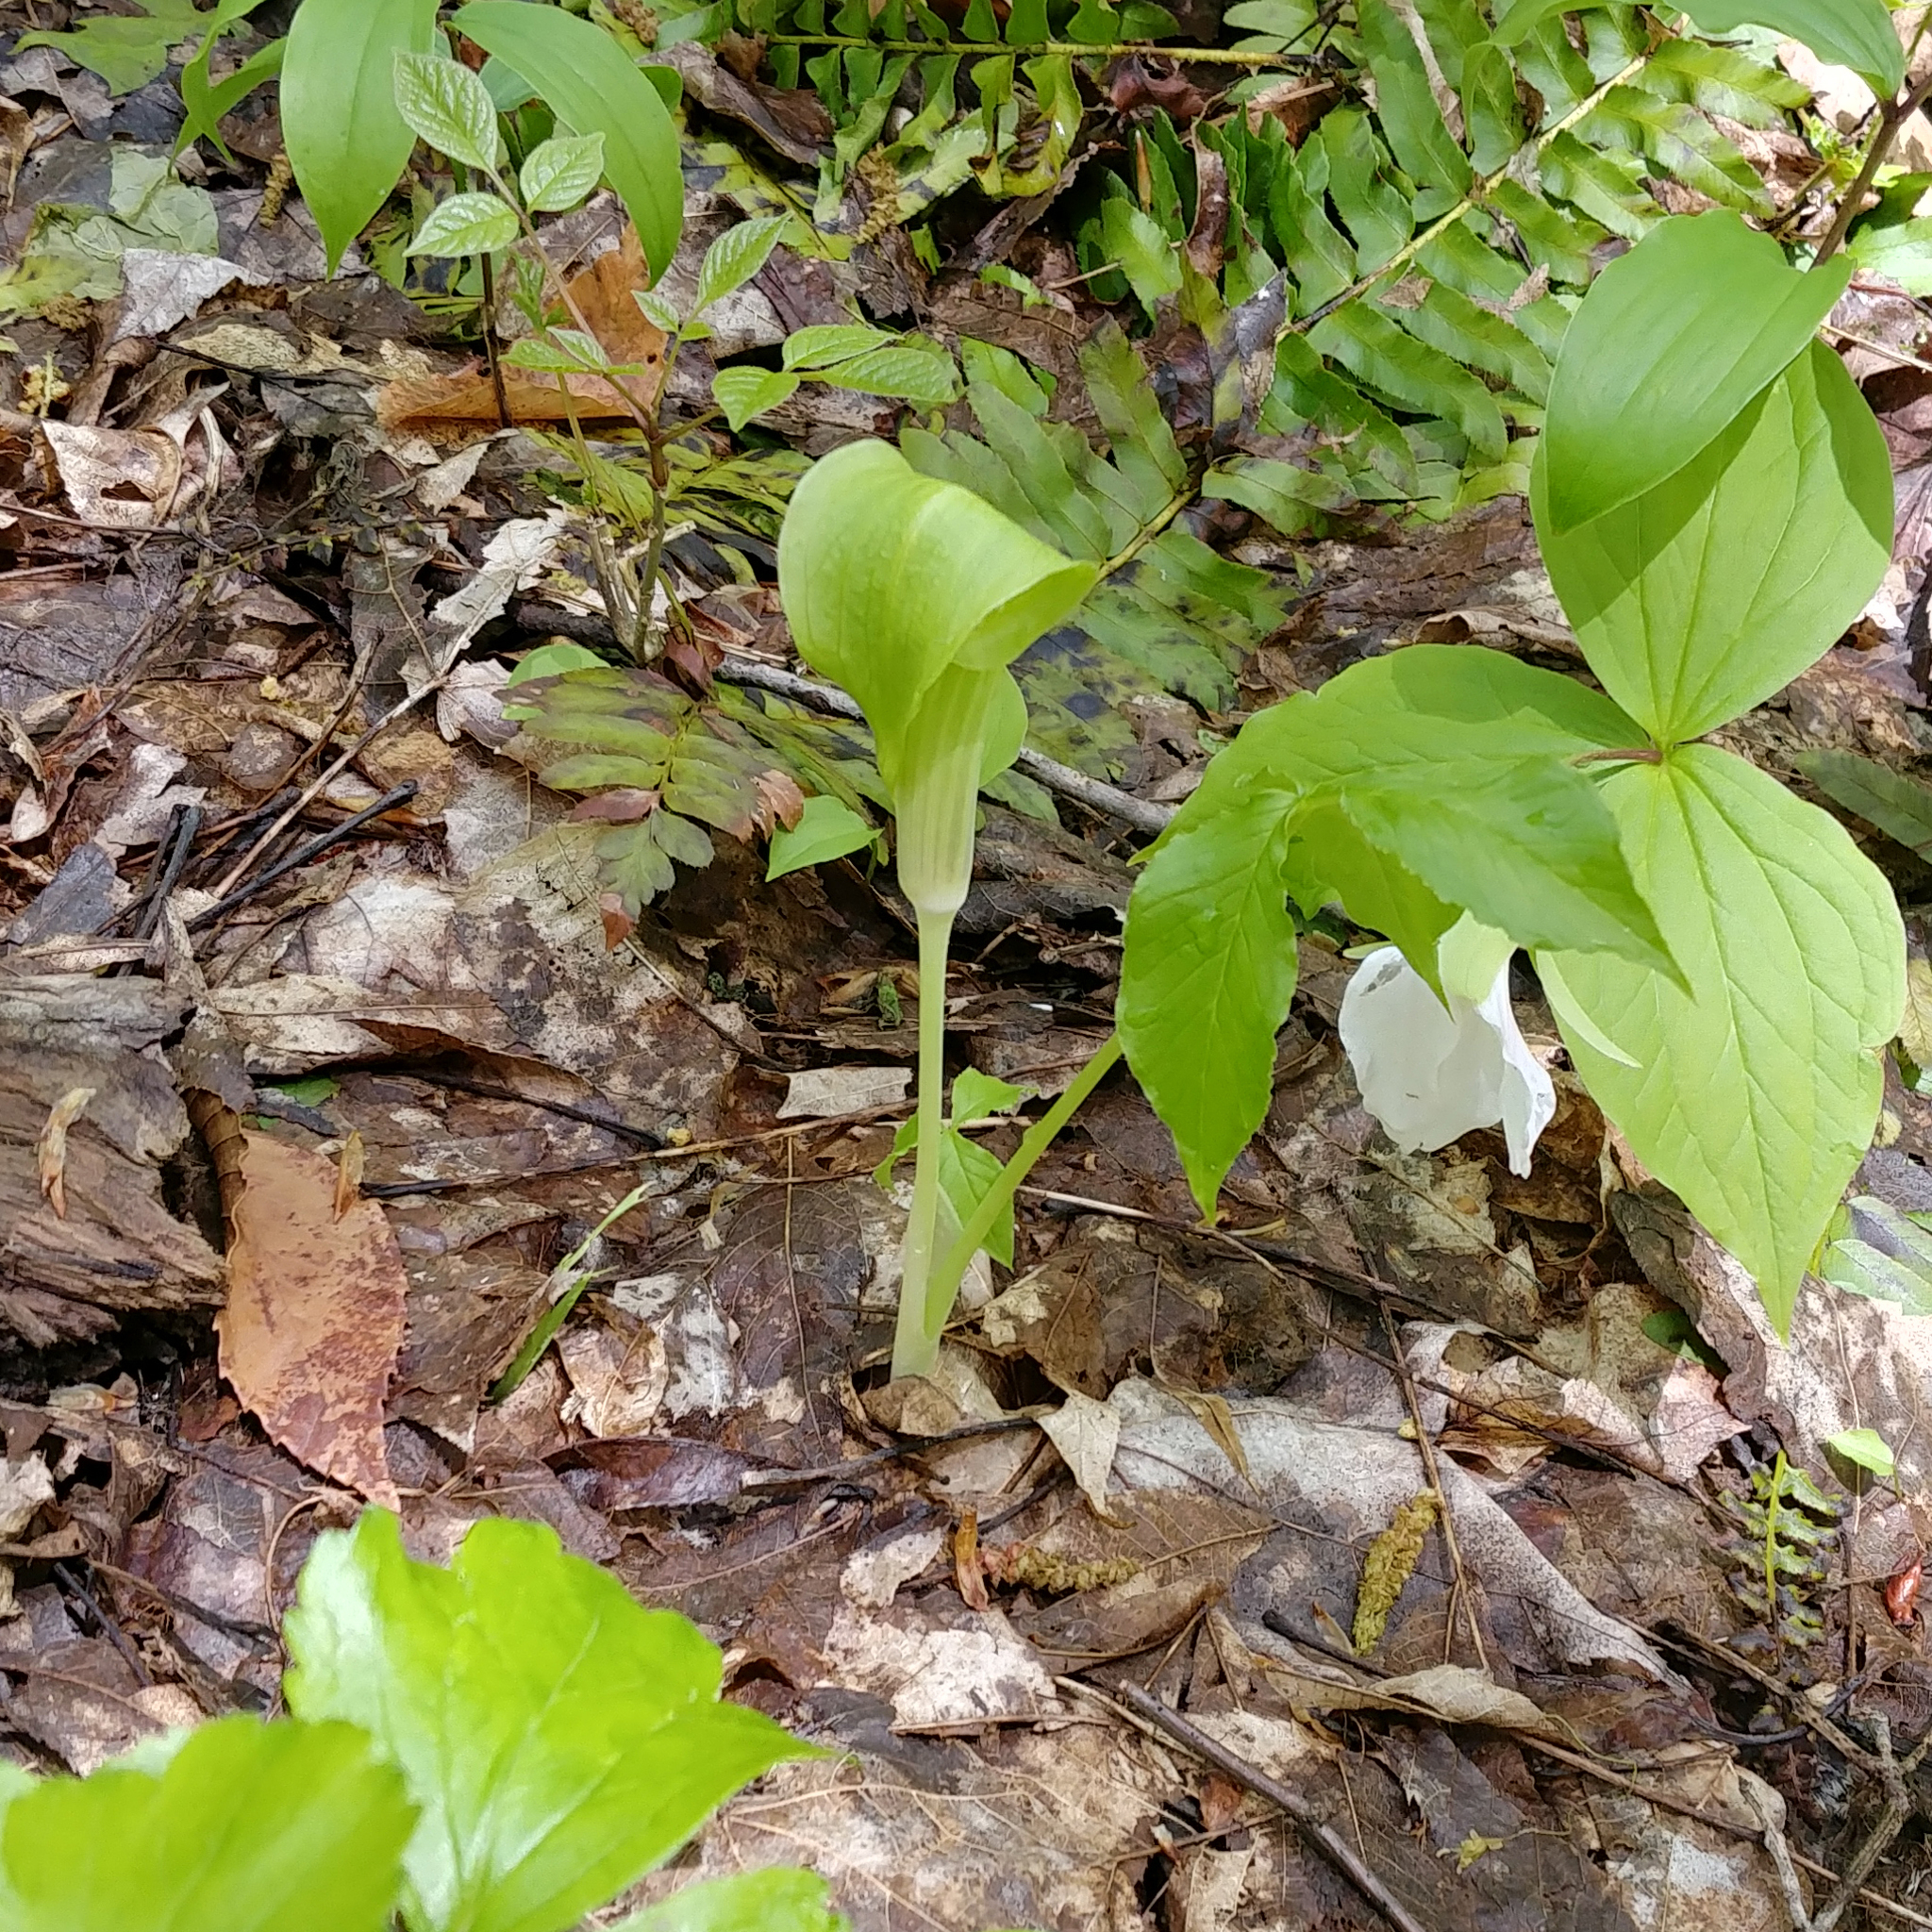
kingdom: Plantae
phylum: Tracheophyta
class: Liliopsida
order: Alismatales
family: Araceae
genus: Arisaema
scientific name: Arisaema triphyllum
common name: Jack-in-the-pulpit
